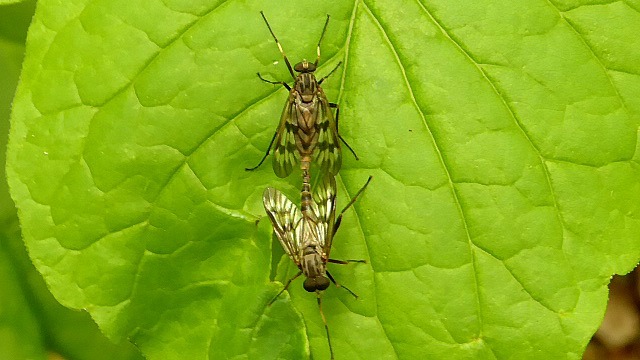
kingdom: Animalia
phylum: Arthropoda
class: Insecta
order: Diptera
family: Rhagionidae
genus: Rhagio
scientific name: Rhagio mystaceus
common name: Common snipe fly
